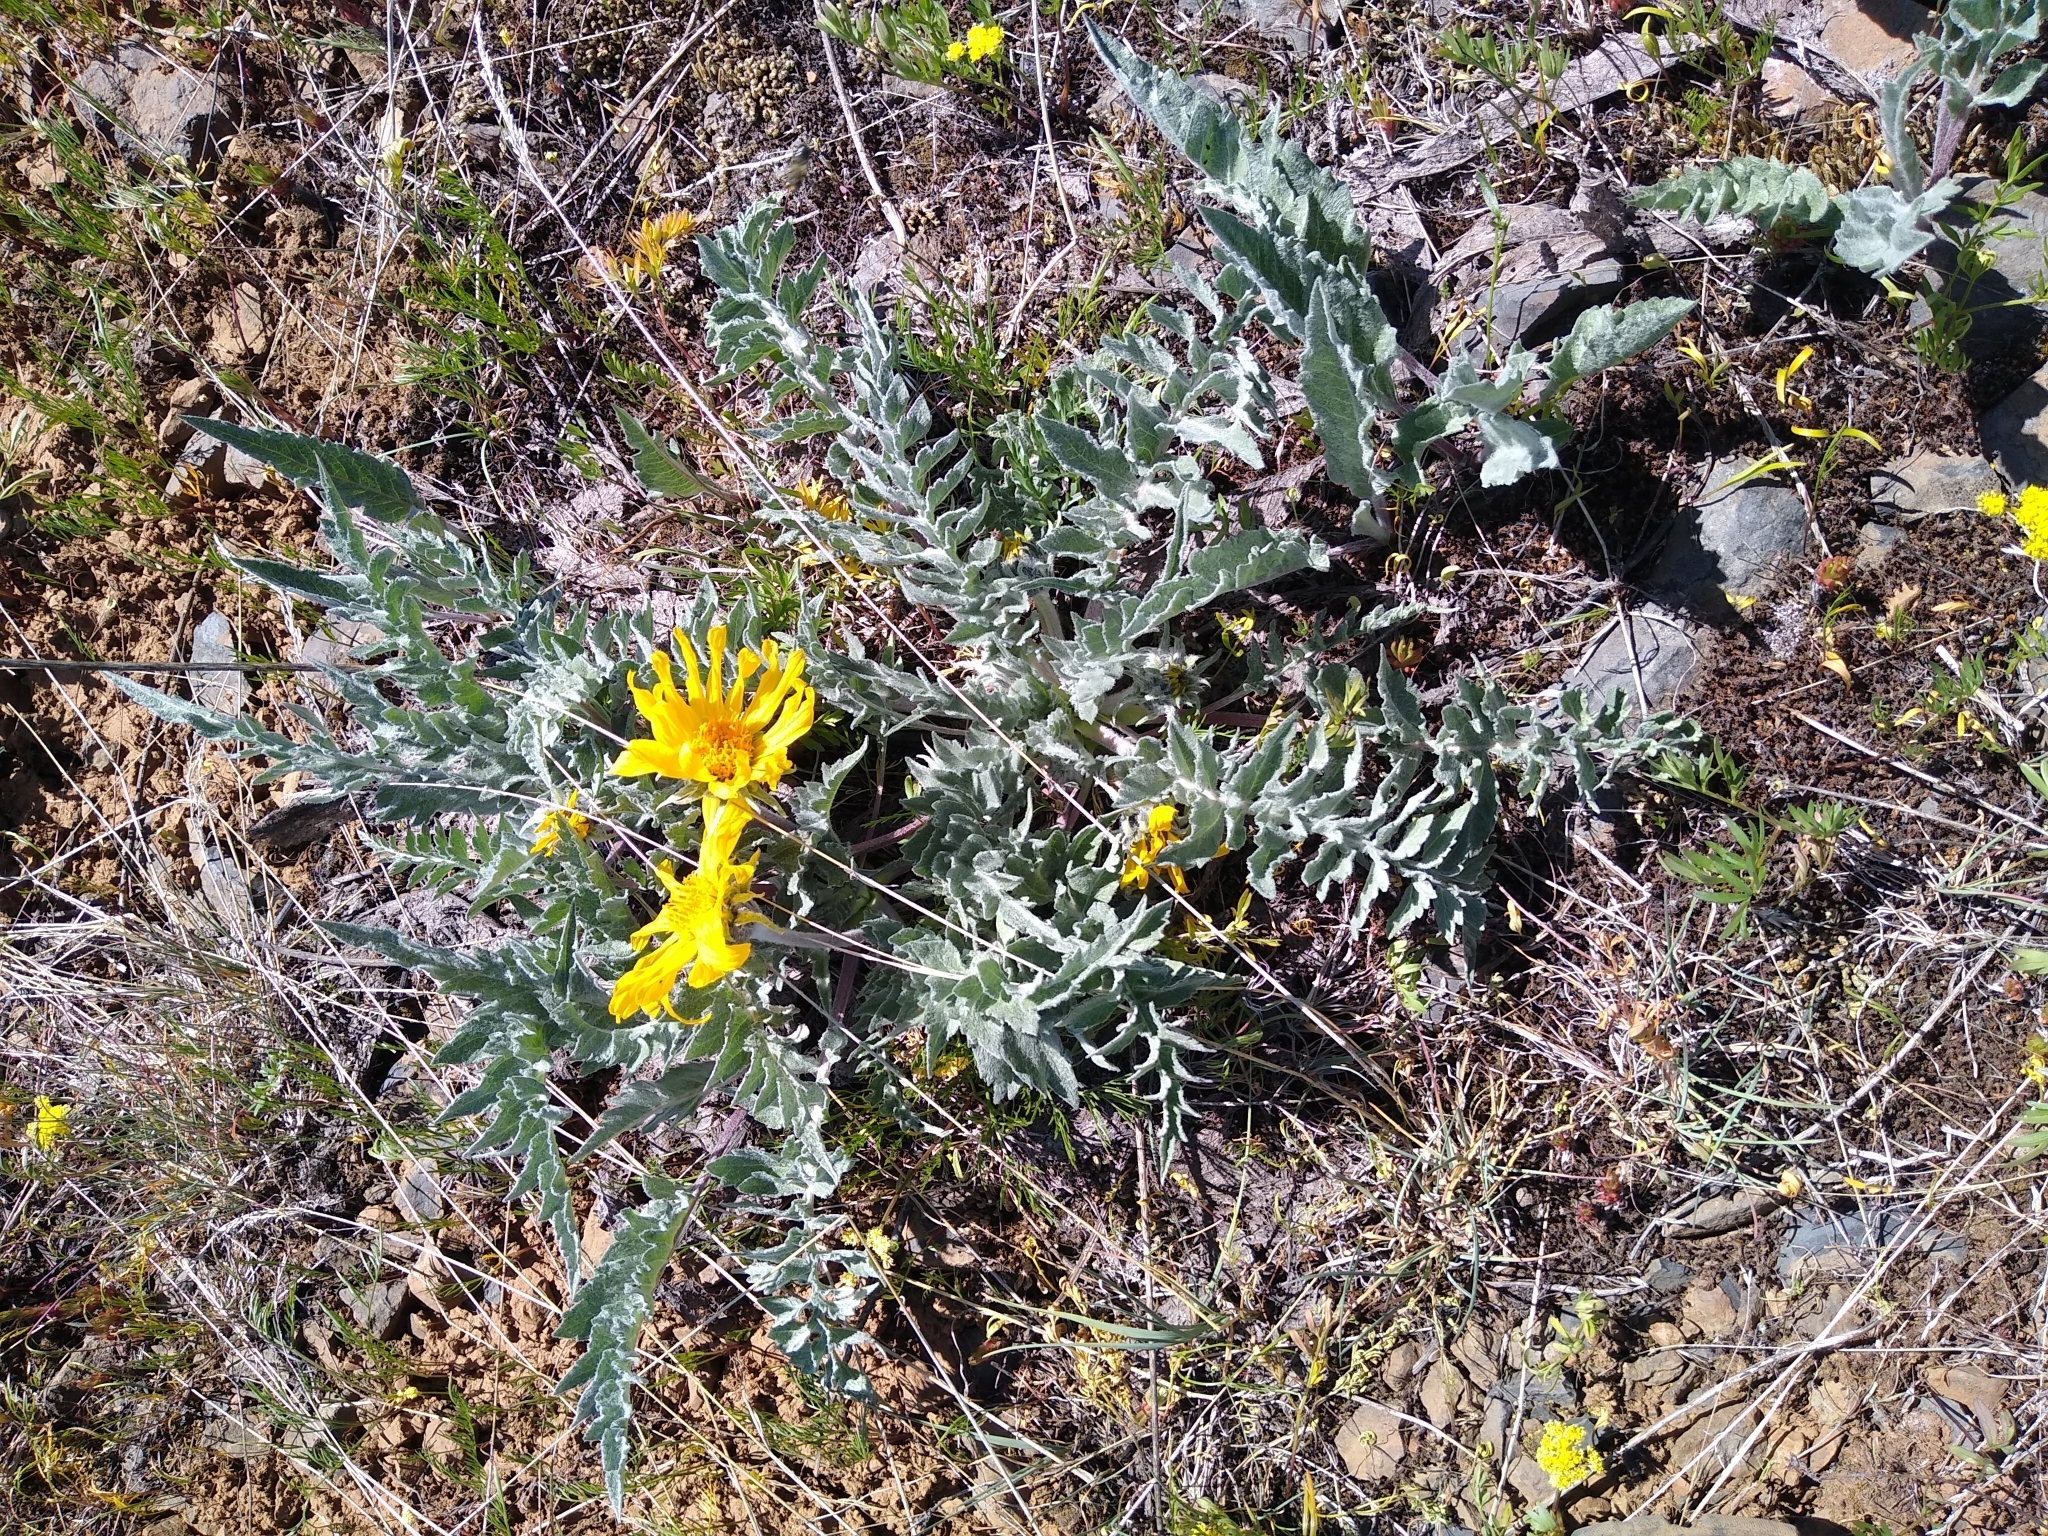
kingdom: Plantae
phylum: Tracheophyta
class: Magnoliopsida
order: Asterales
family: Asteraceae
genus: Balsamorhiza
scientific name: Balsamorhiza hookeri
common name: Hooker's balsamroot
